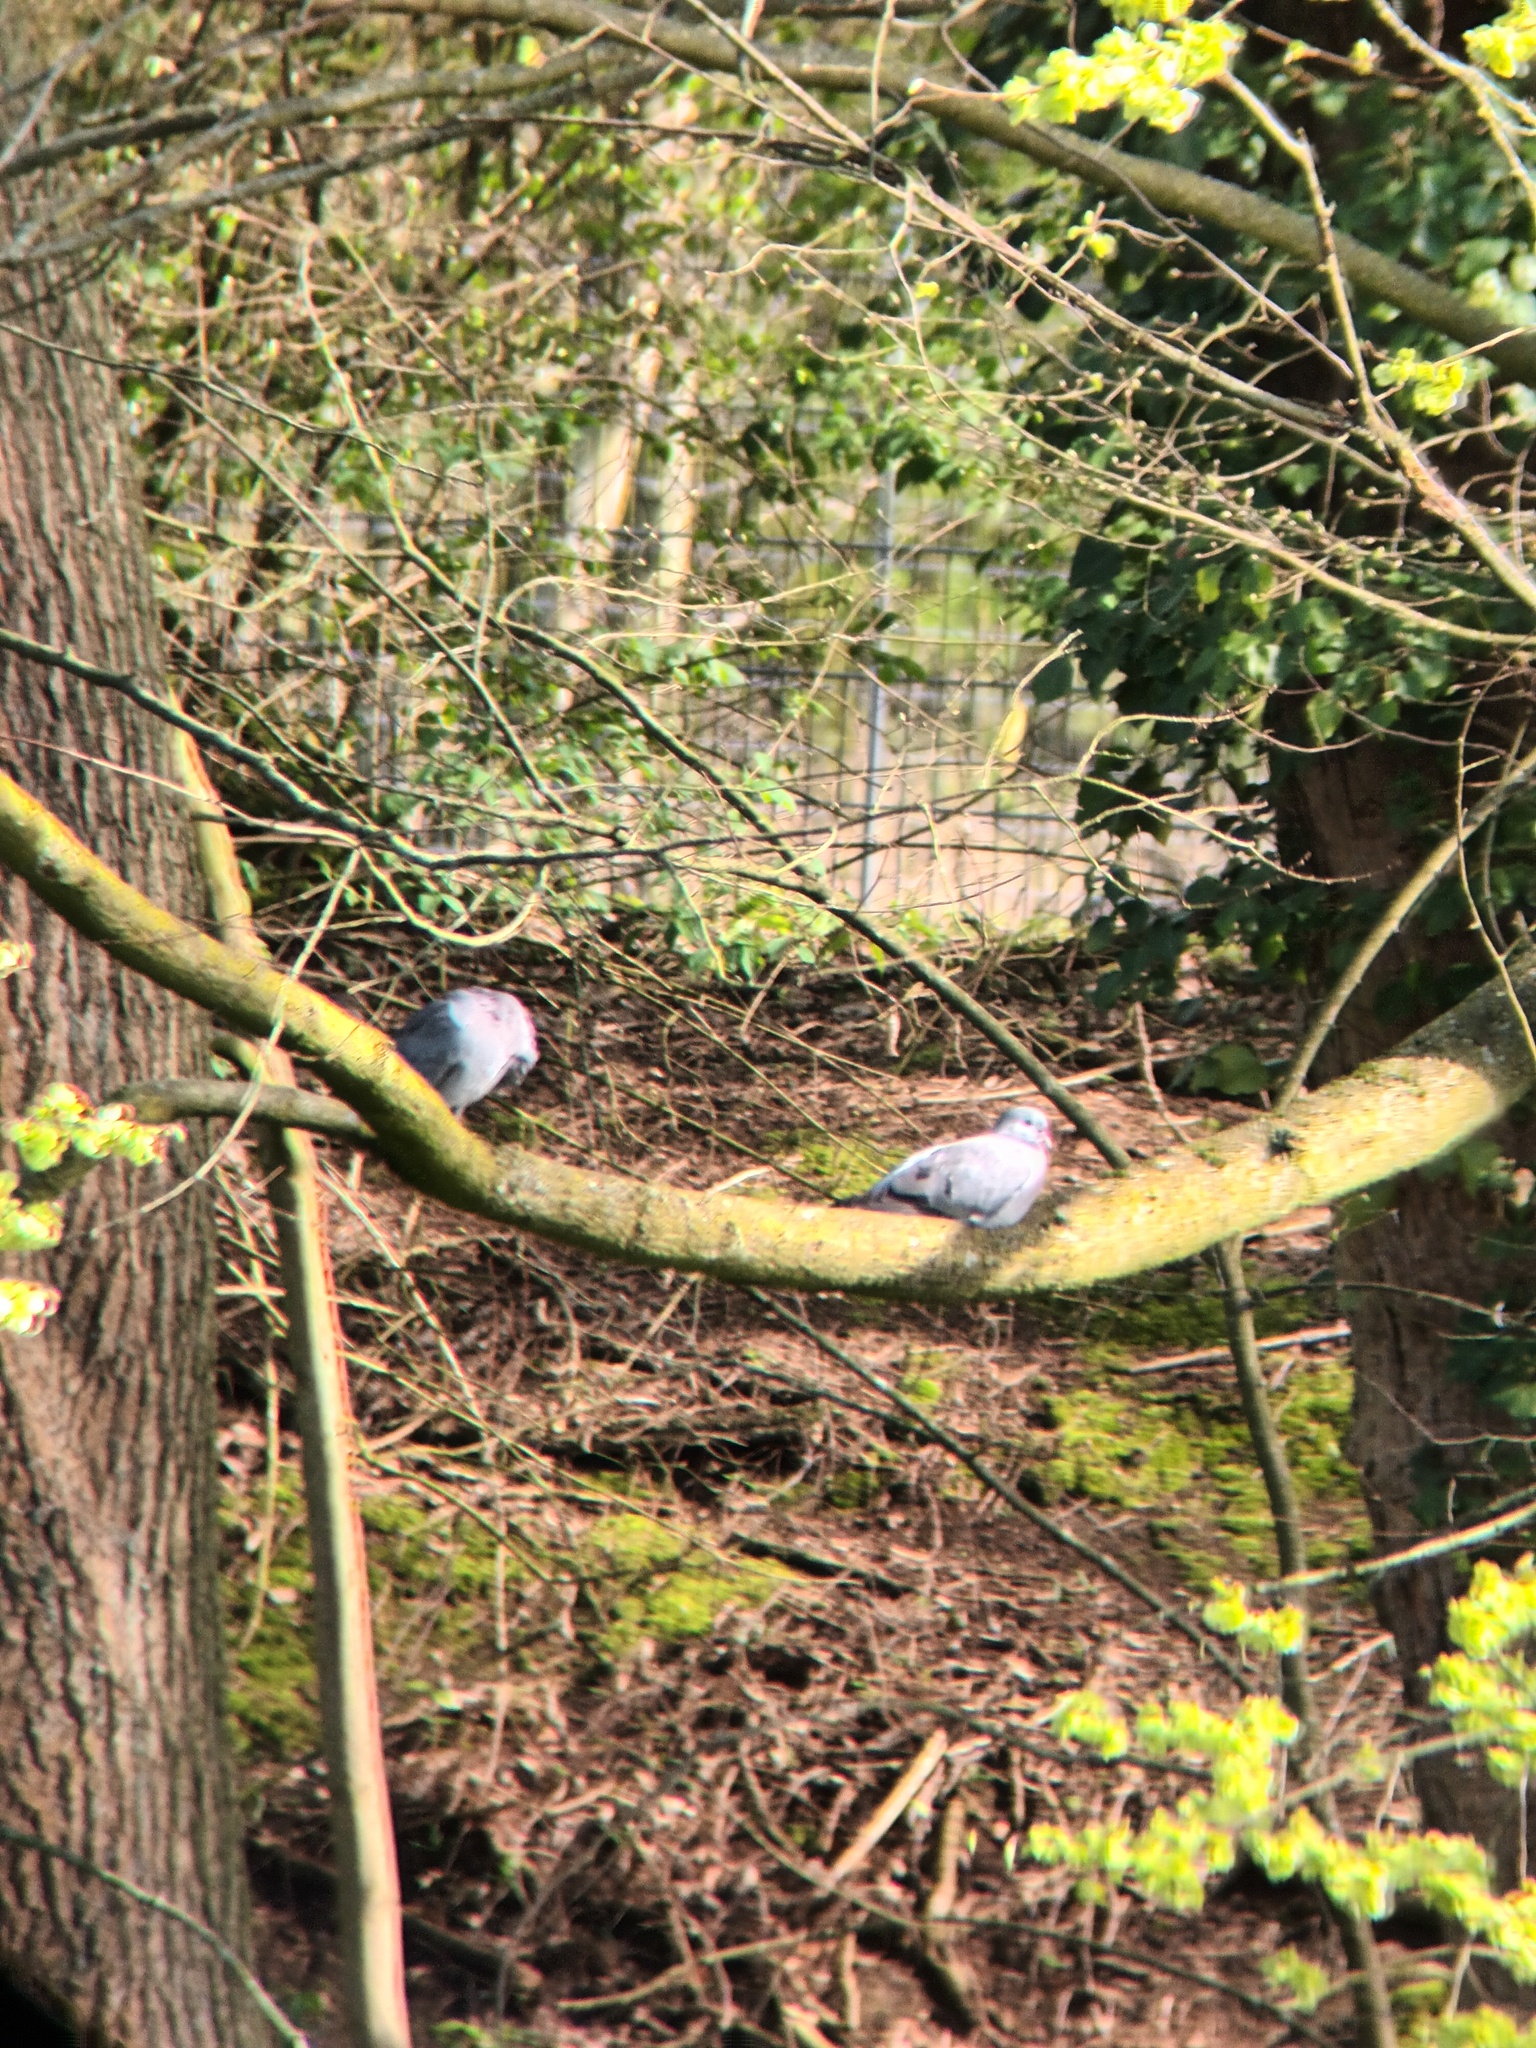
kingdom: Animalia
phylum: Chordata
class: Aves
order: Columbiformes
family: Columbidae
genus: Columba
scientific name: Columba oenas
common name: Stock dove
